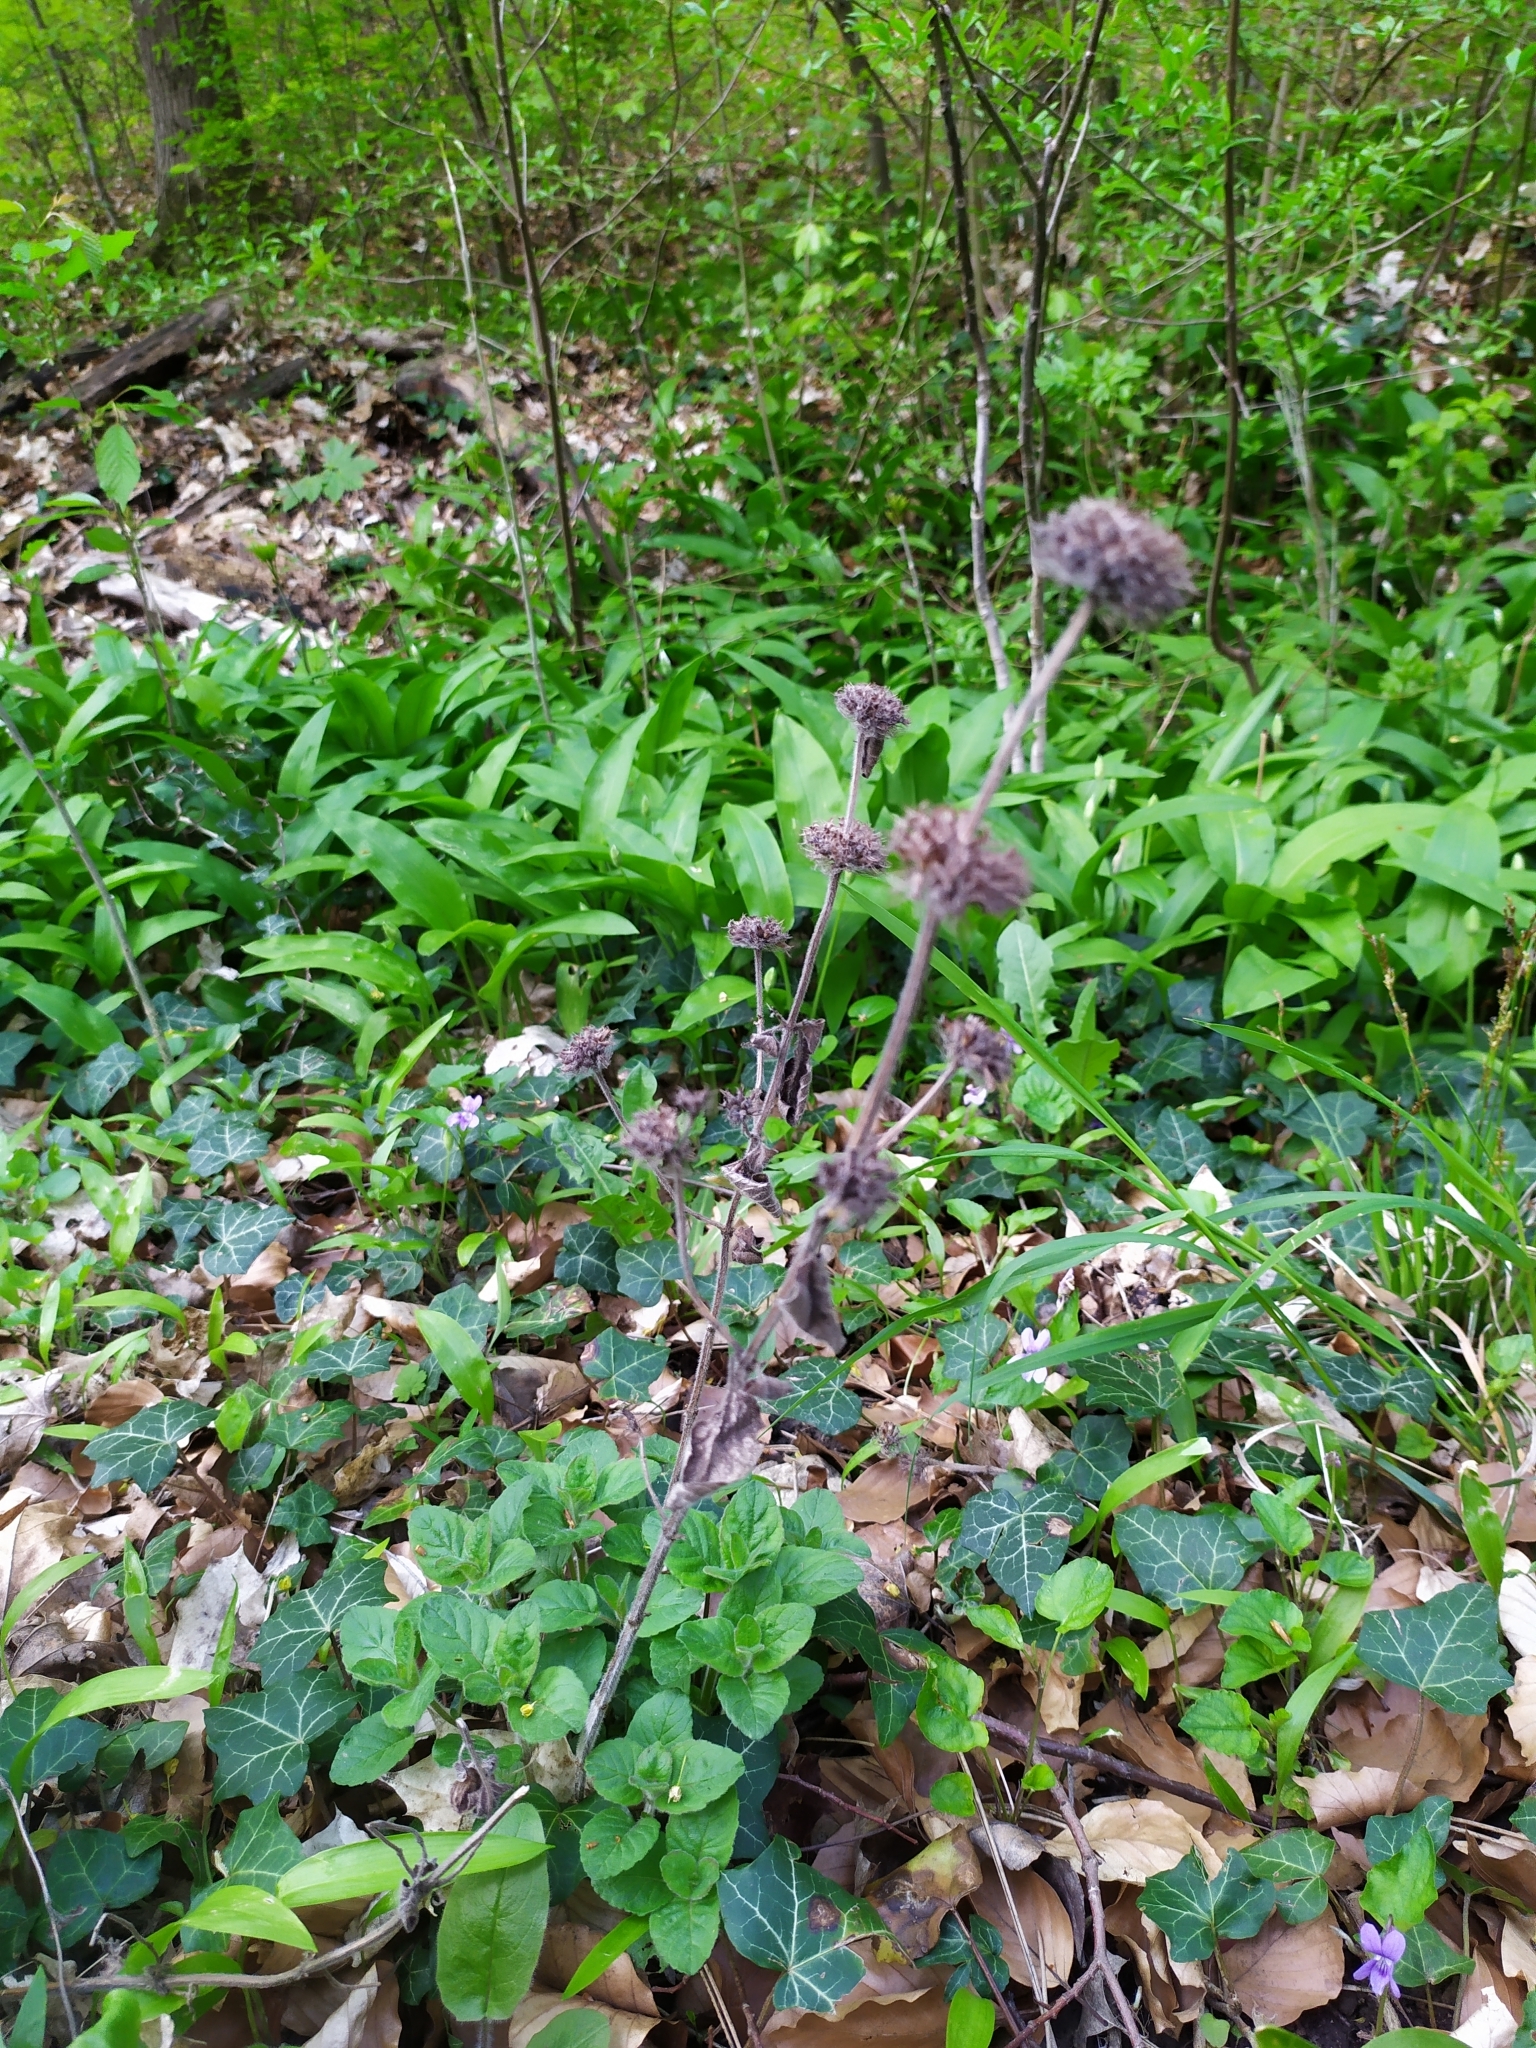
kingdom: Plantae
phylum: Tracheophyta
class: Magnoliopsida
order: Lamiales
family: Lamiaceae
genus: Clinopodium
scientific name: Clinopodium vulgare
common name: Wild basil
